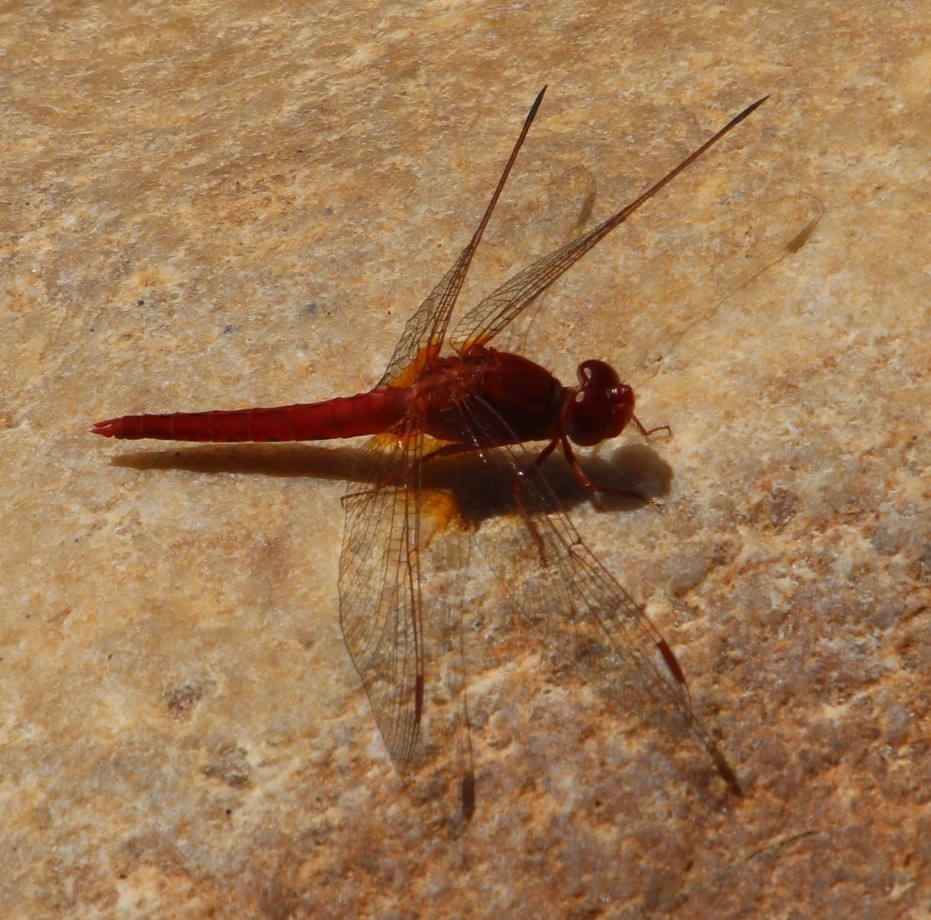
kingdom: Animalia
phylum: Arthropoda
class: Insecta
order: Odonata
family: Libellulidae
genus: Crocothemis
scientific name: Crocothemis sanguinolenta
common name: Little scarlet
